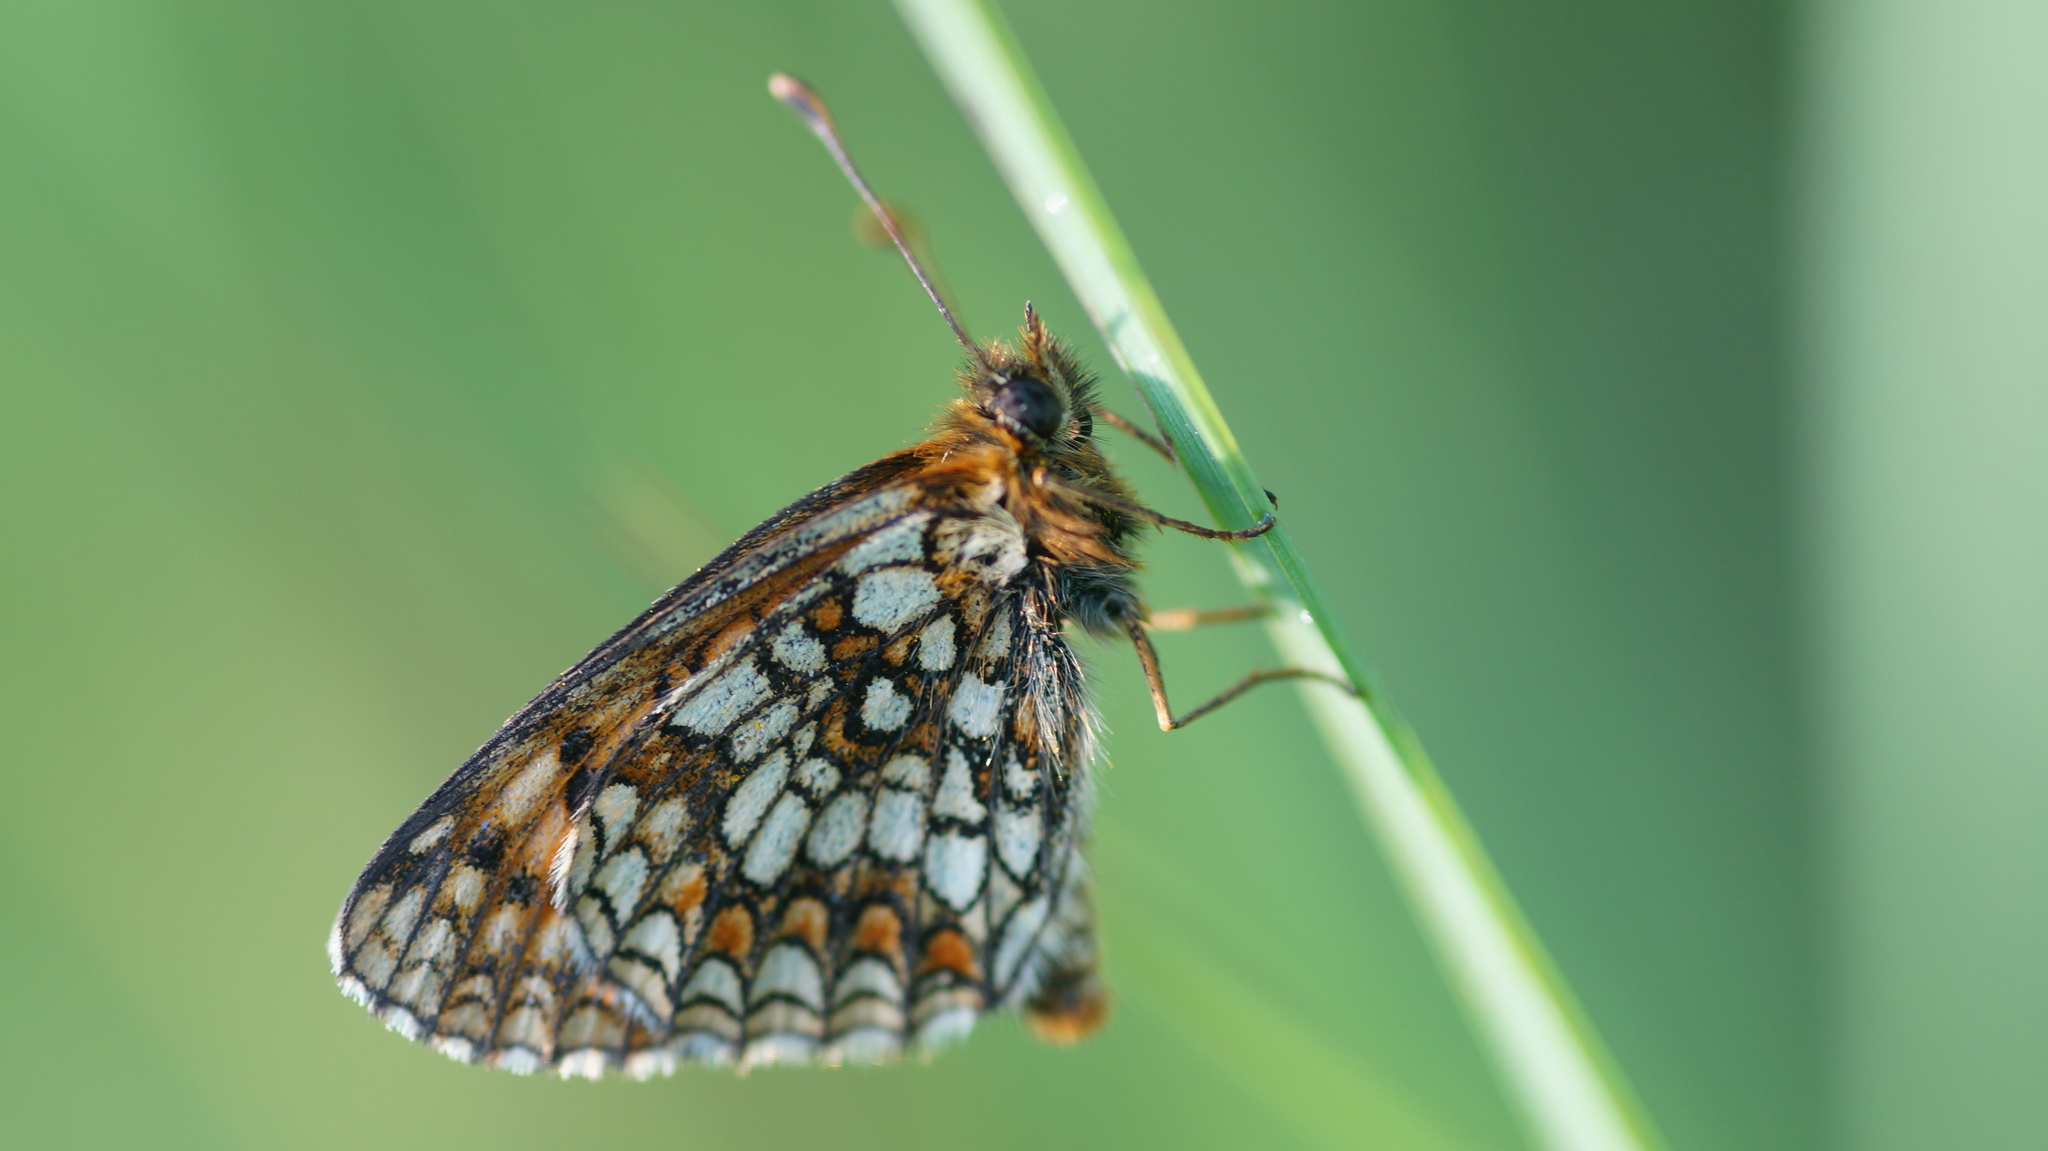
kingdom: Animalia
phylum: Arthropoda
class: Insecta
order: Lepidoptera
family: Nymphalidae
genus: Melitaea
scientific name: Melitaea
